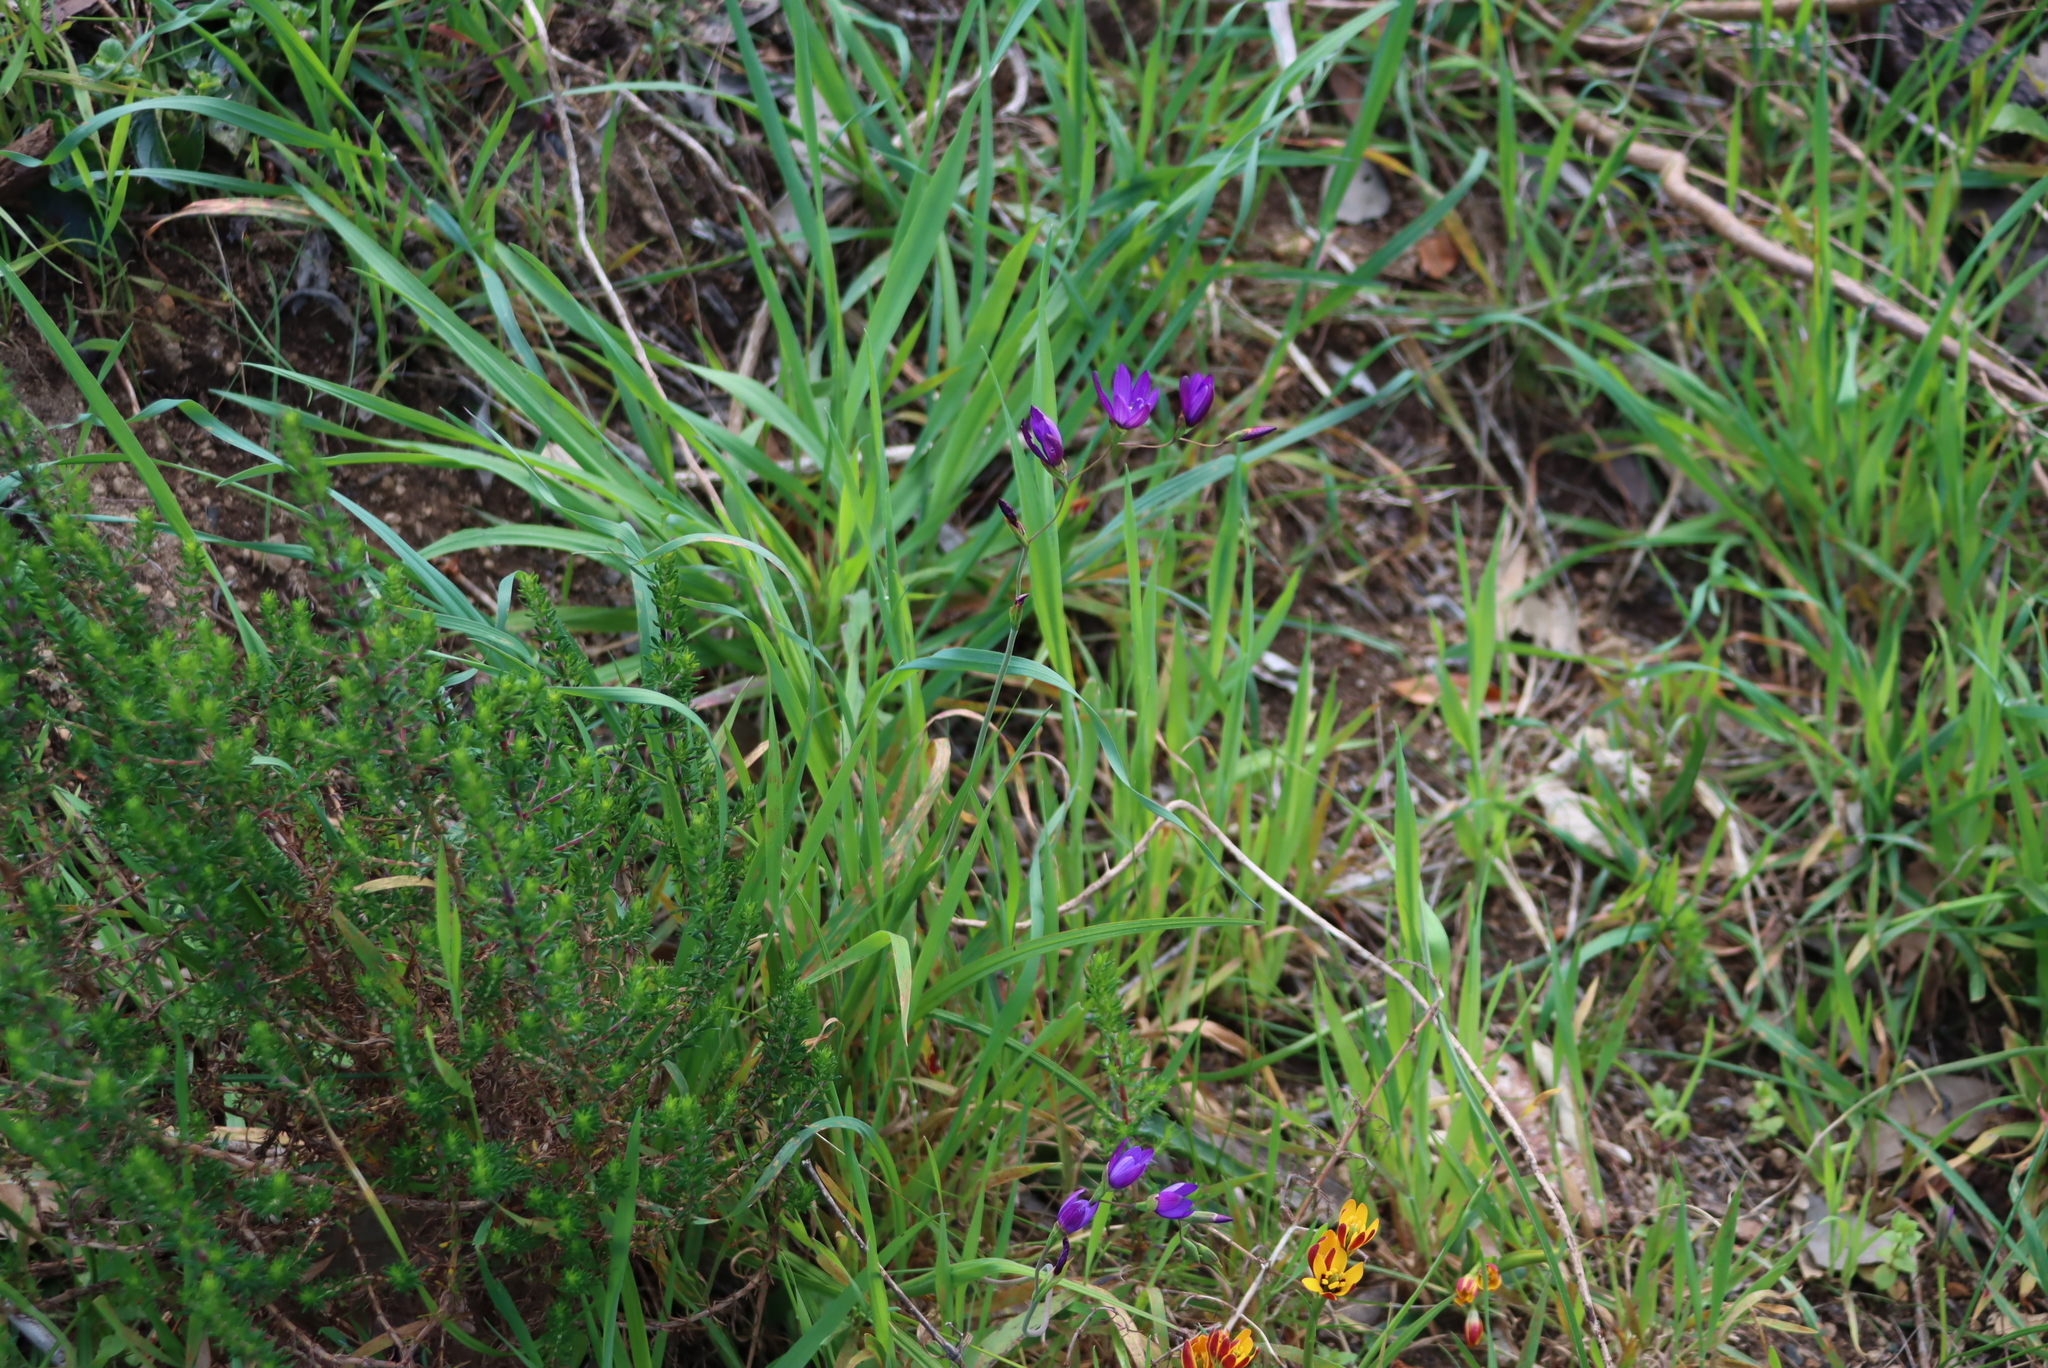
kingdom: Plantae
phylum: Tracheophyta
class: Liliopsida
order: Asparagales
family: Iridaceae
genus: Geissorhiza
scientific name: Geissorhiza aspera
